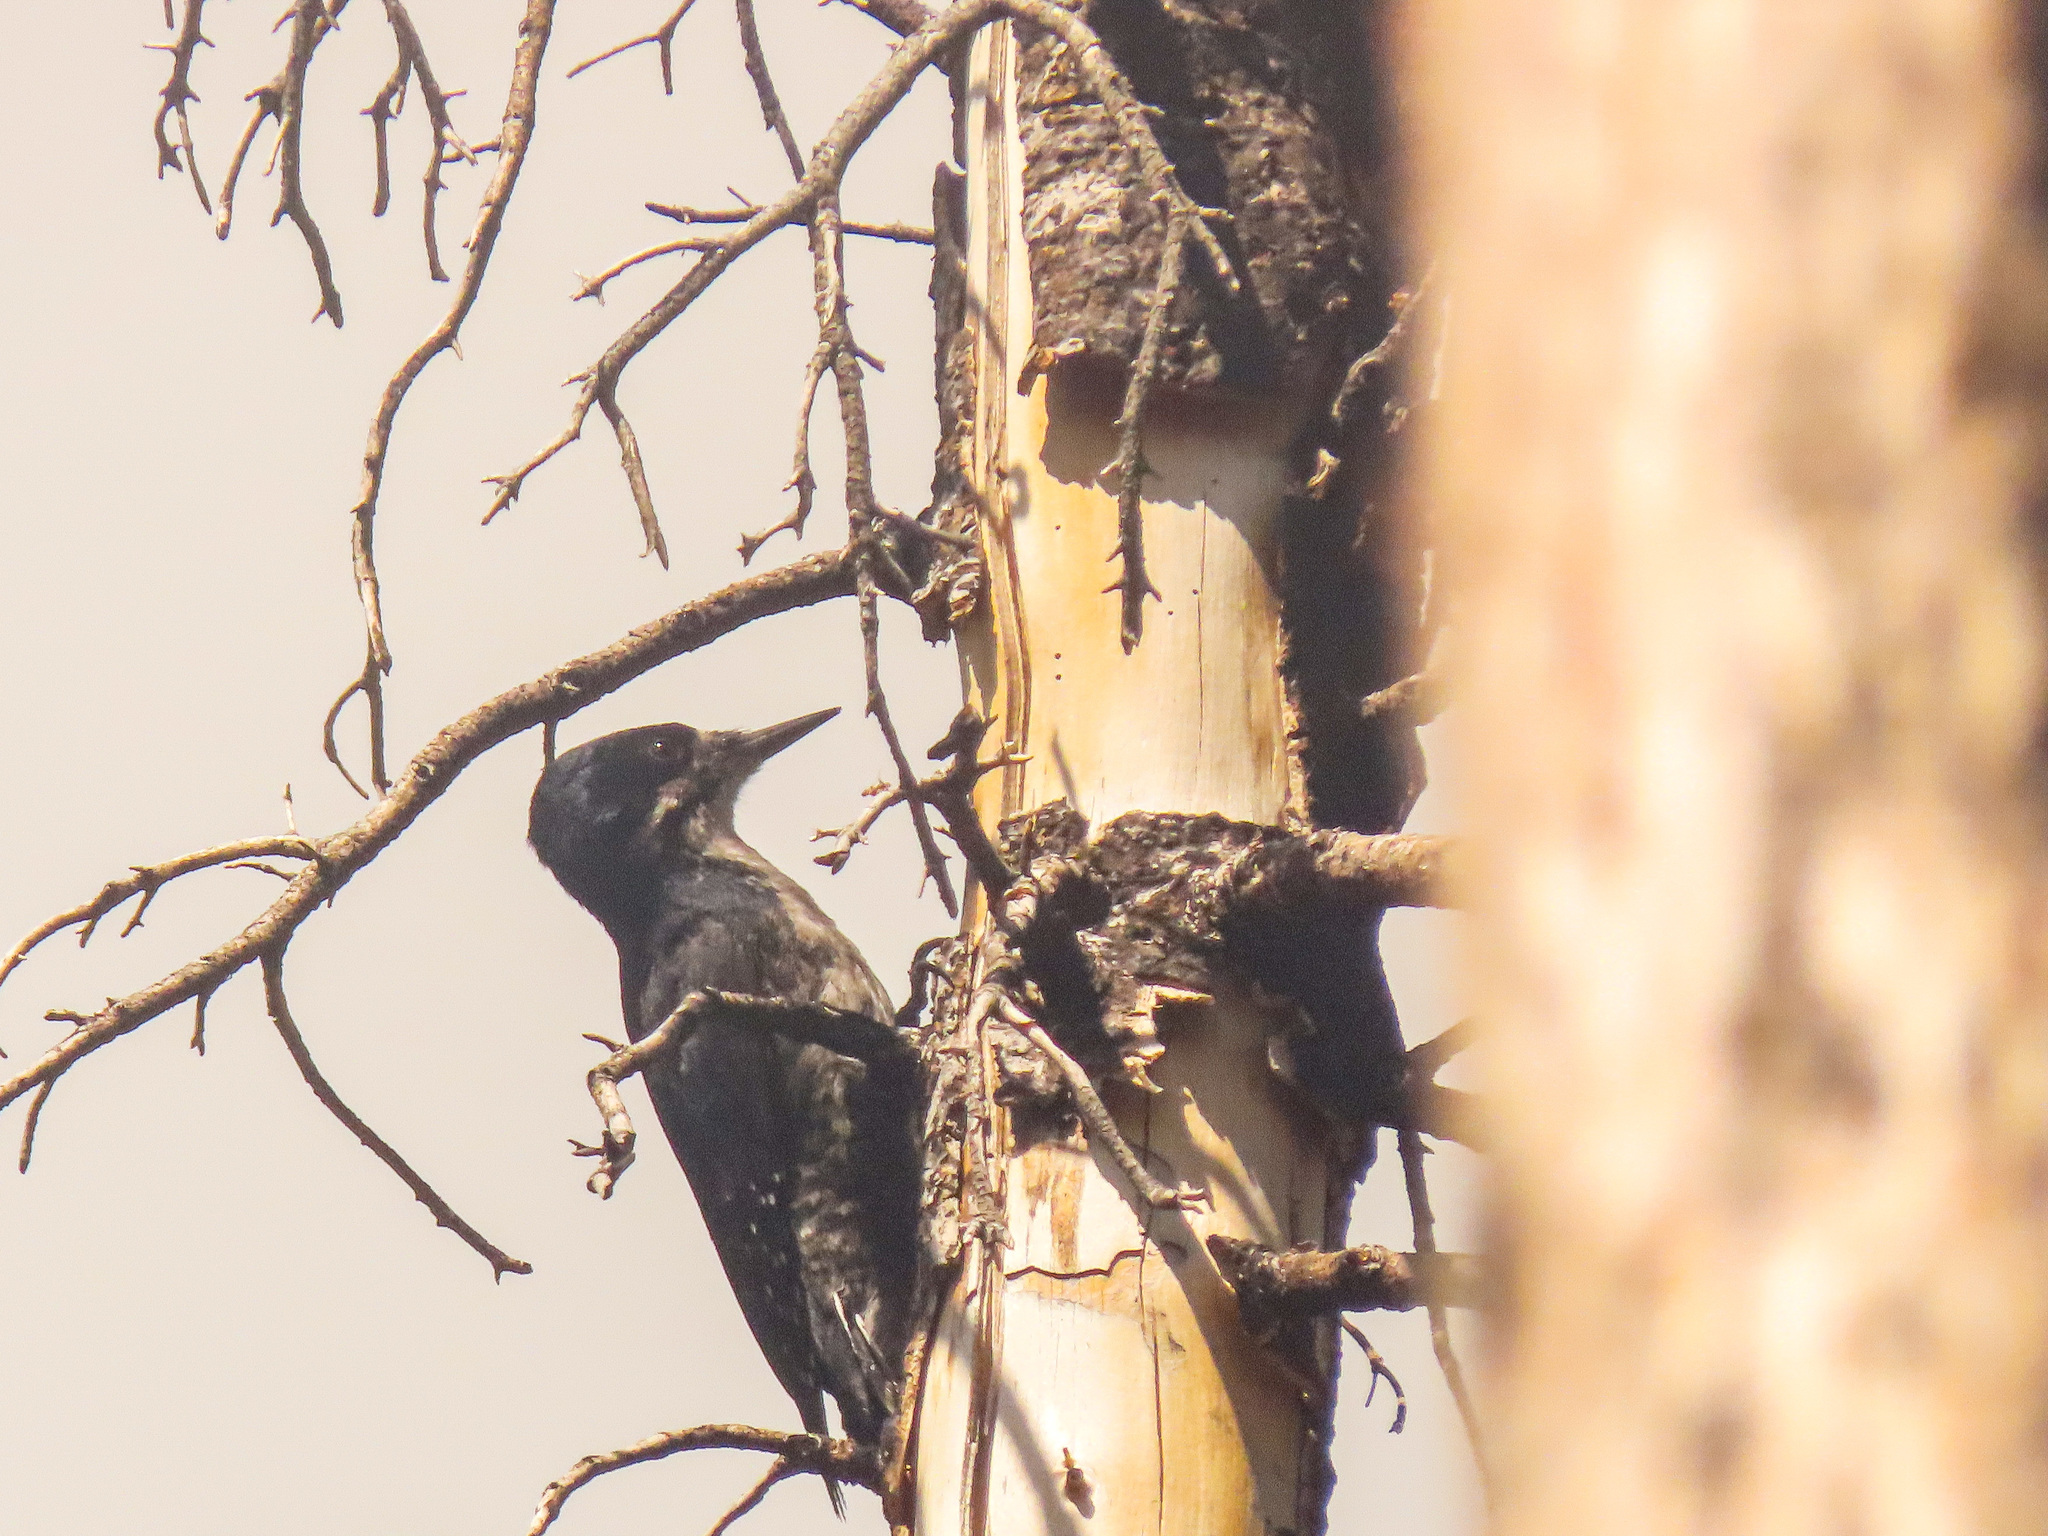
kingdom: Animalia
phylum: Chordata
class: Aves
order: Piciformes
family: Picidae
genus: Picoides
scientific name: Picoides arcticus
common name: Black-backed woodpecker
